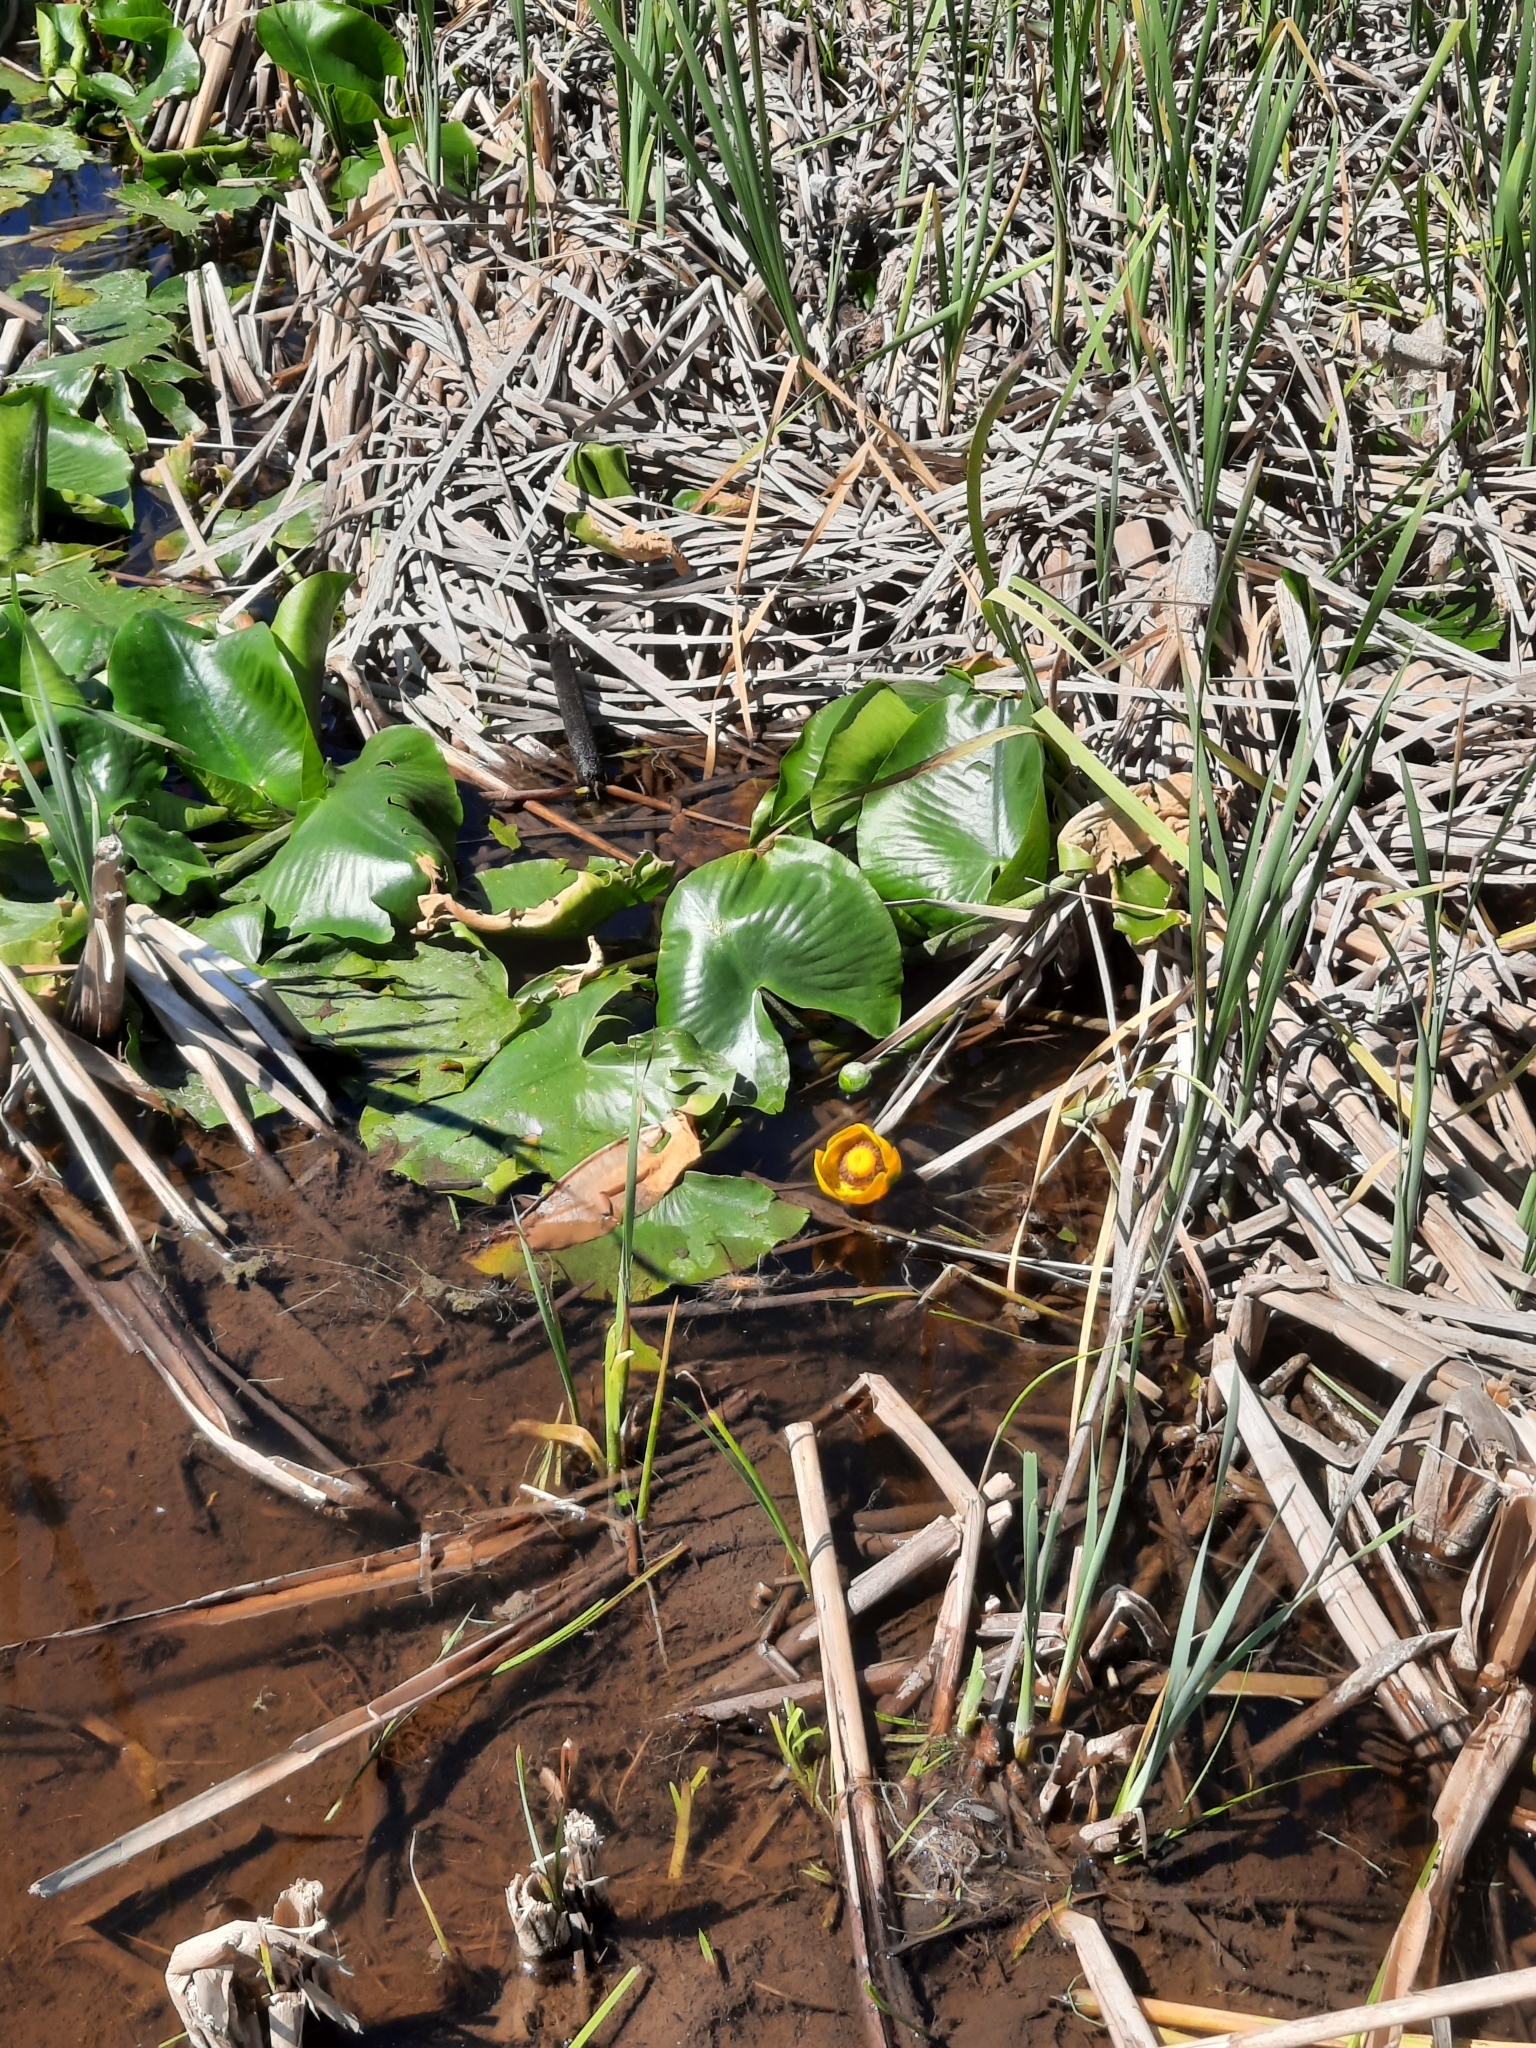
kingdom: Plantae
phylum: Tracheophyta
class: Magnoliopsida
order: Nymphaeales
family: Nymphaeaceae
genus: Nuphar
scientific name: Nuphar polysepala
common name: Rocky mountain cow-lily
